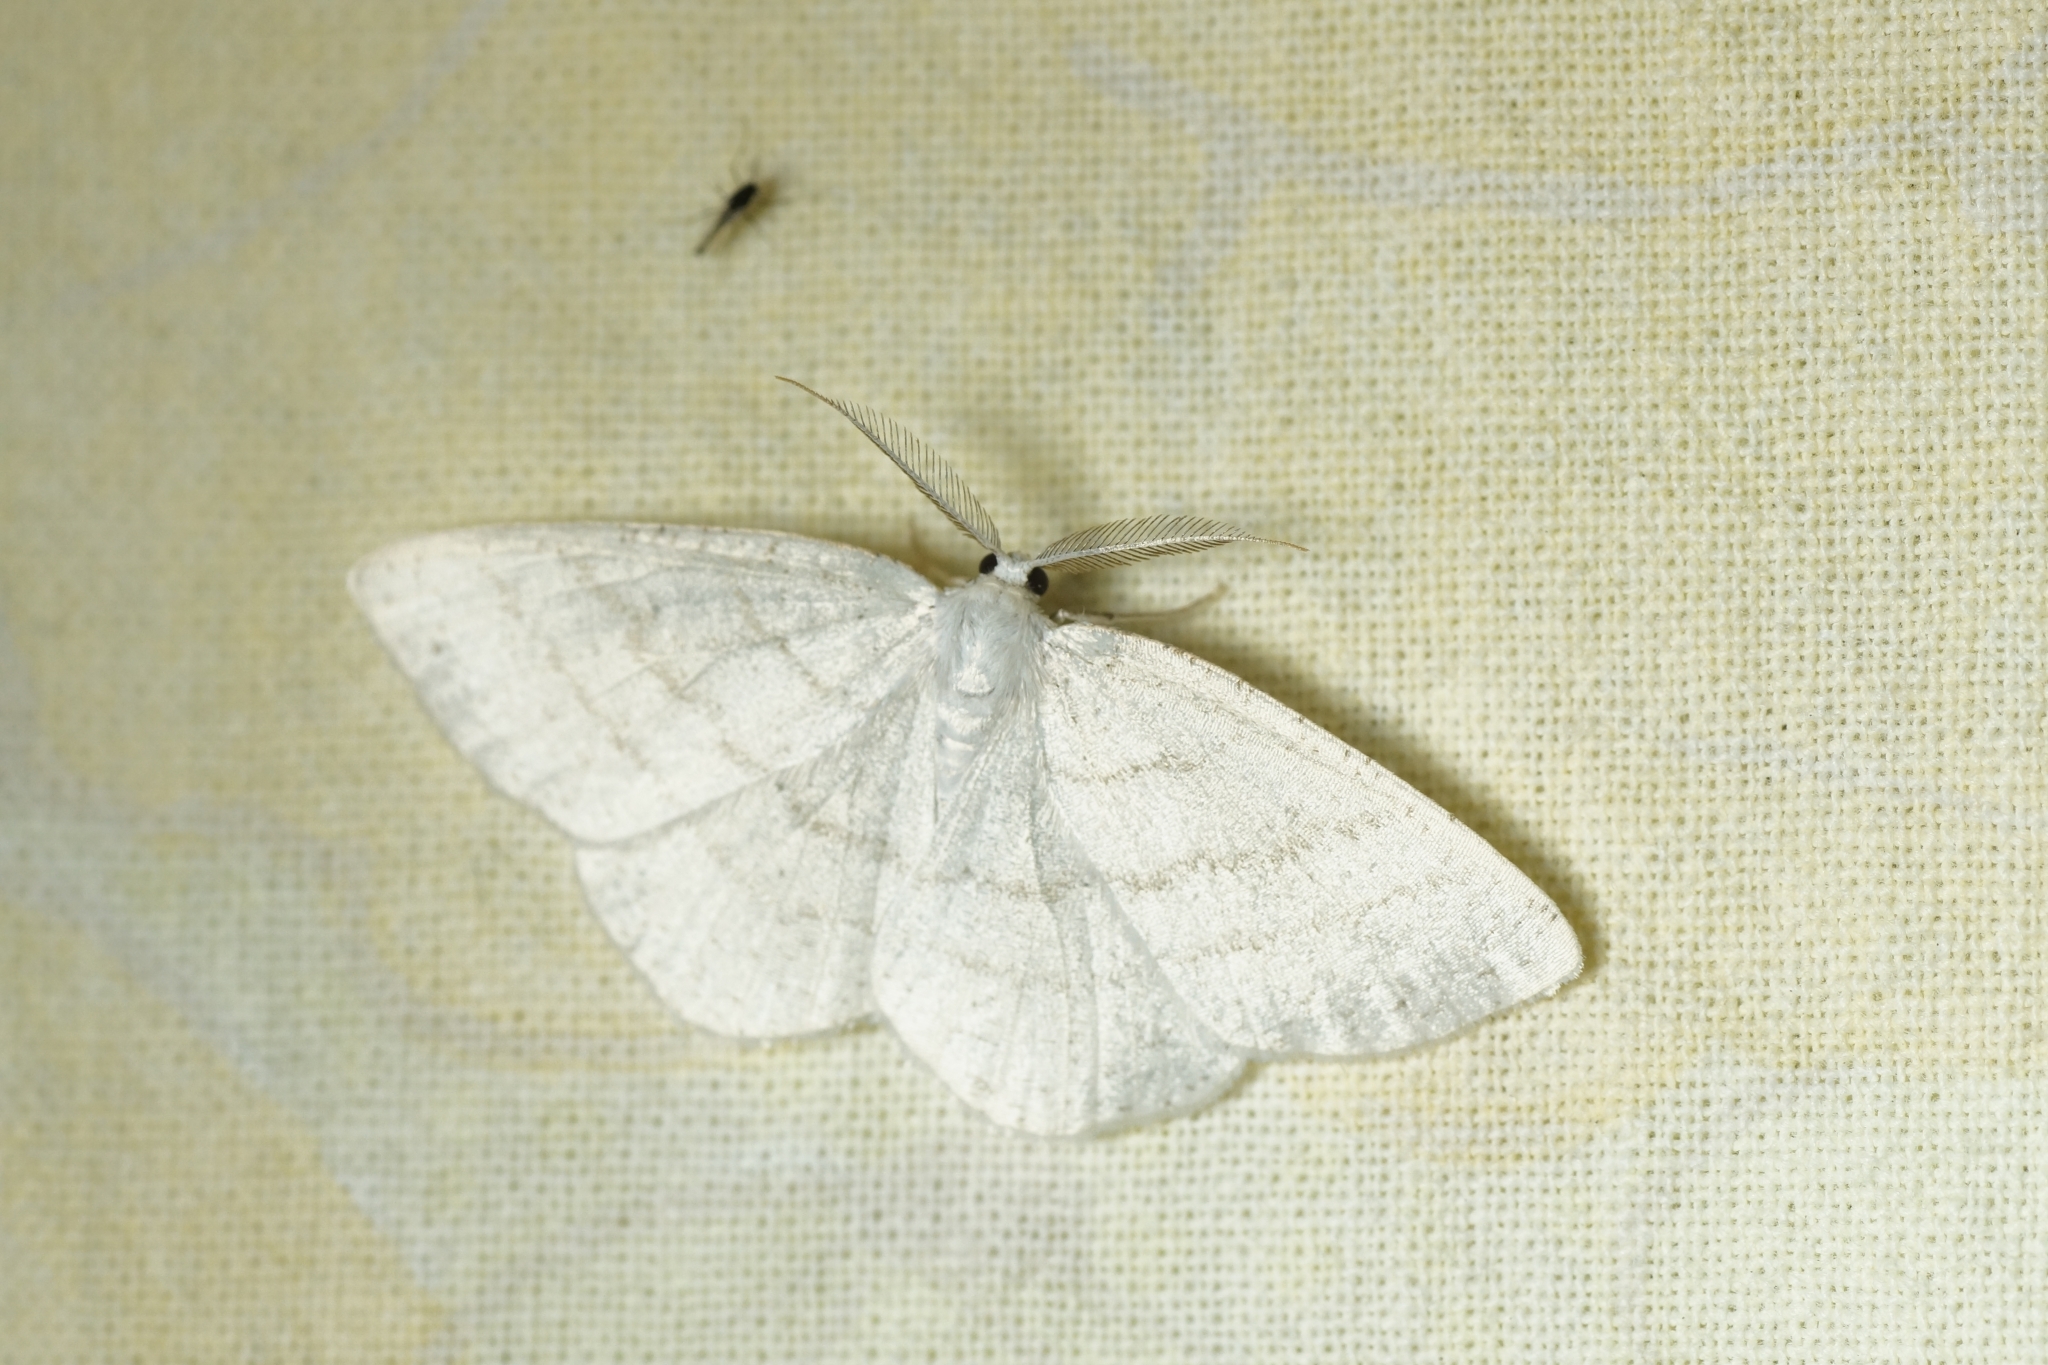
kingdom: Animalia
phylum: Arthropoda
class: Insecta
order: Lepidoptera
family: Geometridae
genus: Cabera
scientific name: Cabera pusaria
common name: Common white wave
